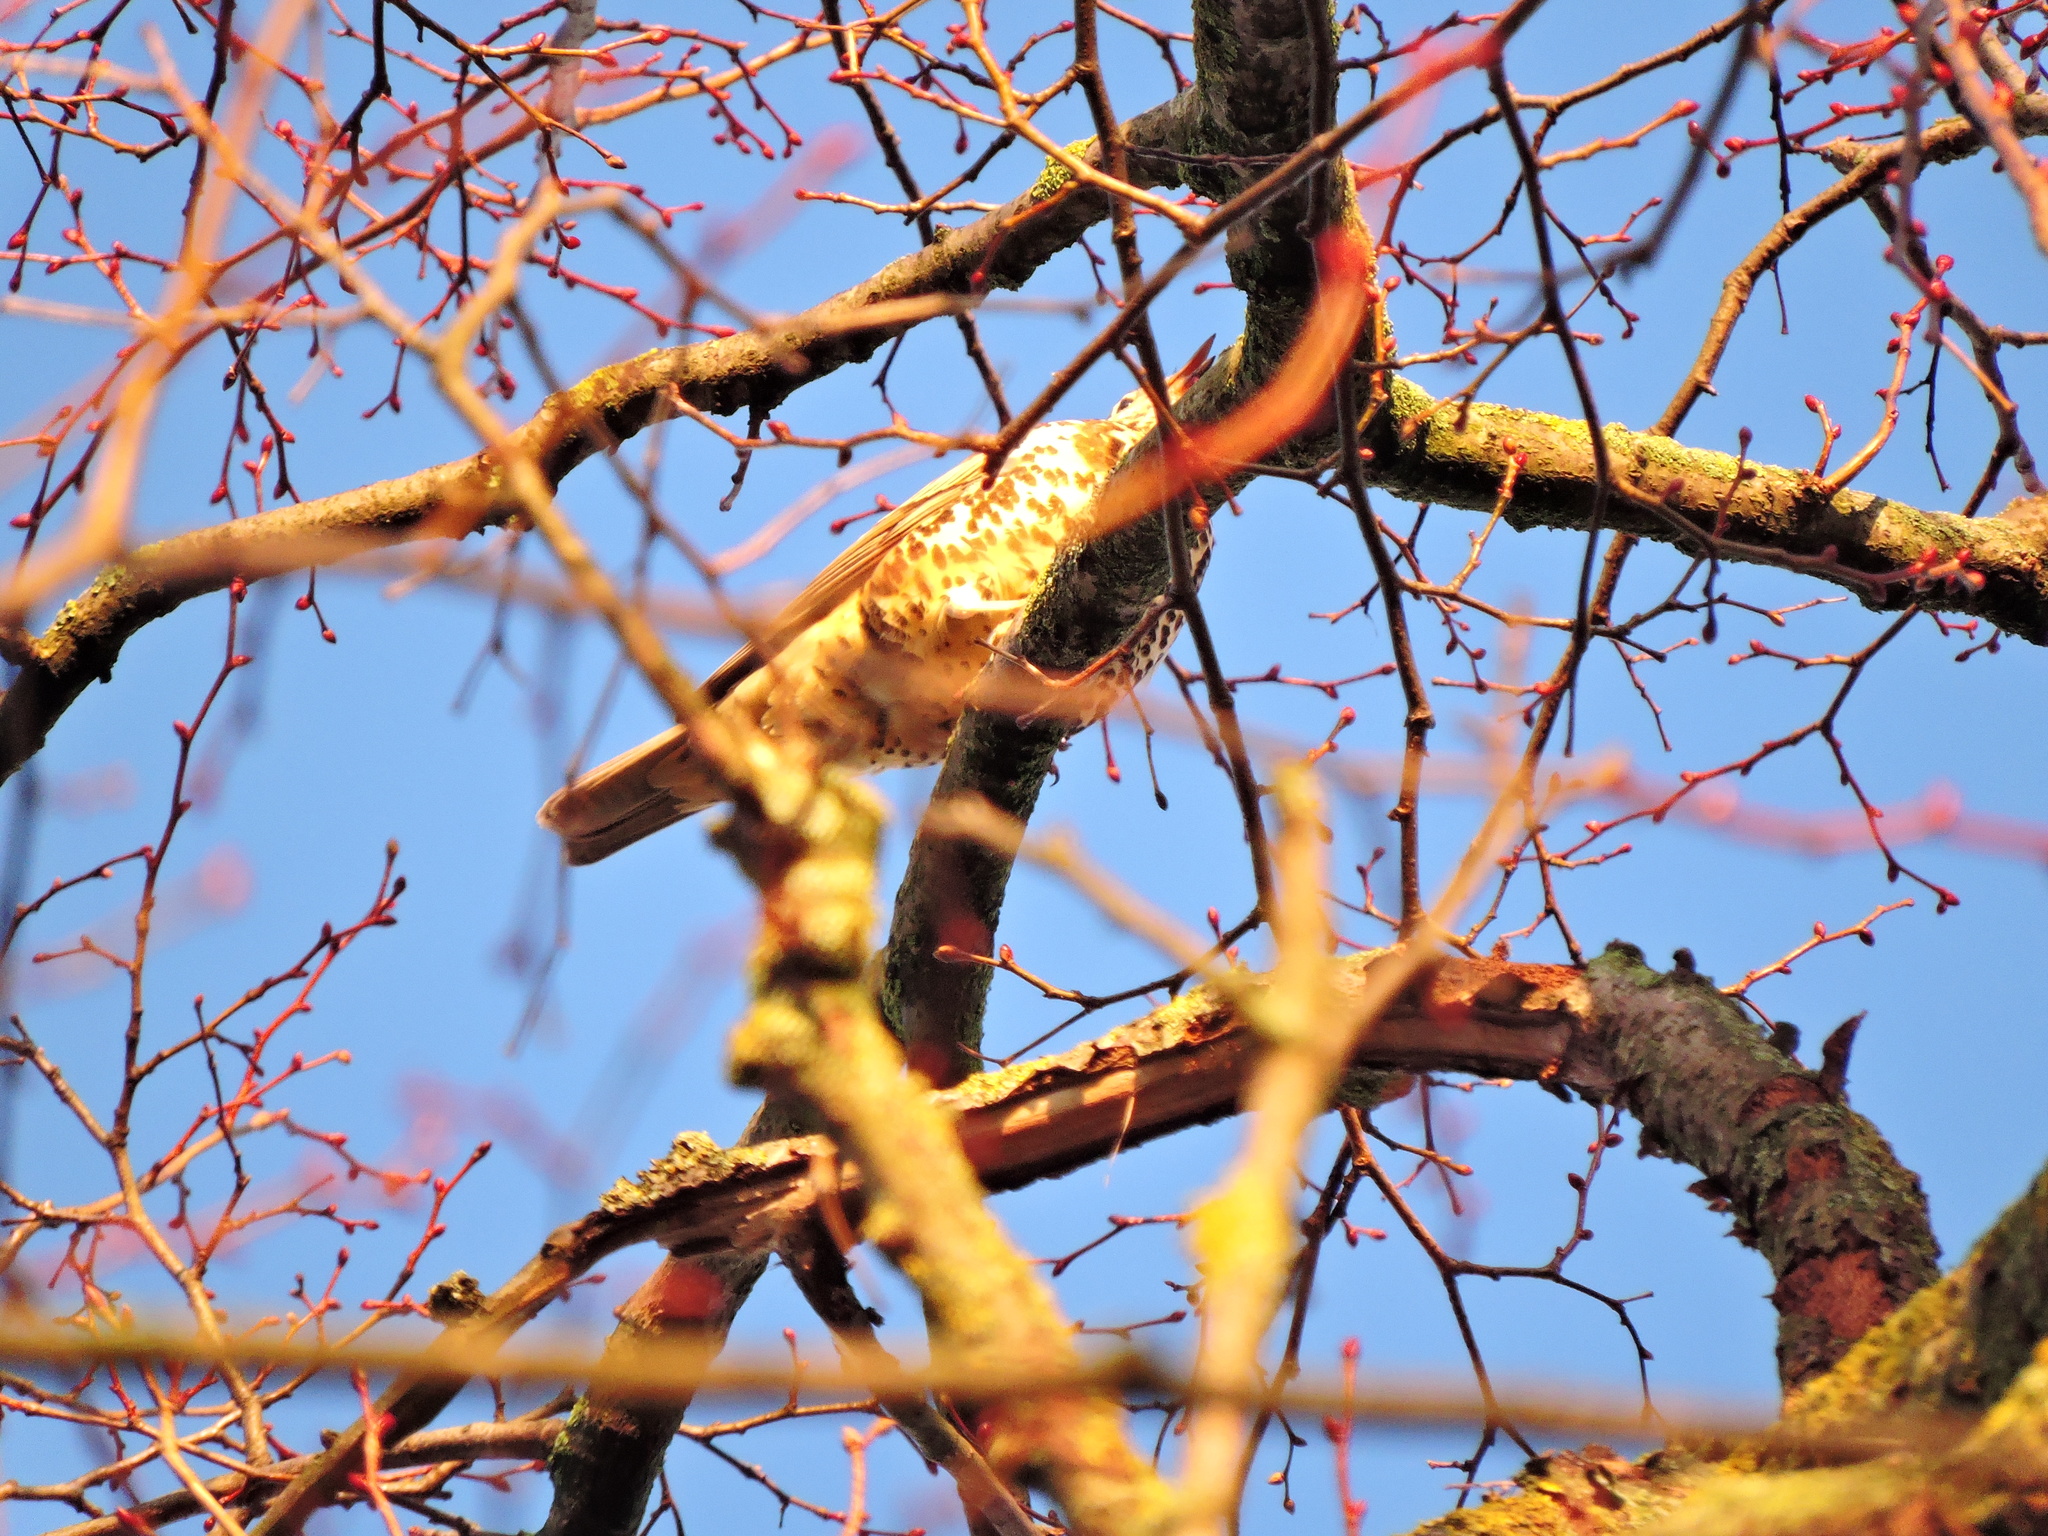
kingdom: Animalia
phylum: Chordata
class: Aves
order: Passeriformes
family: Turdidae
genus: Turdus
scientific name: Turdus viscivorus
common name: Mistle thrush
